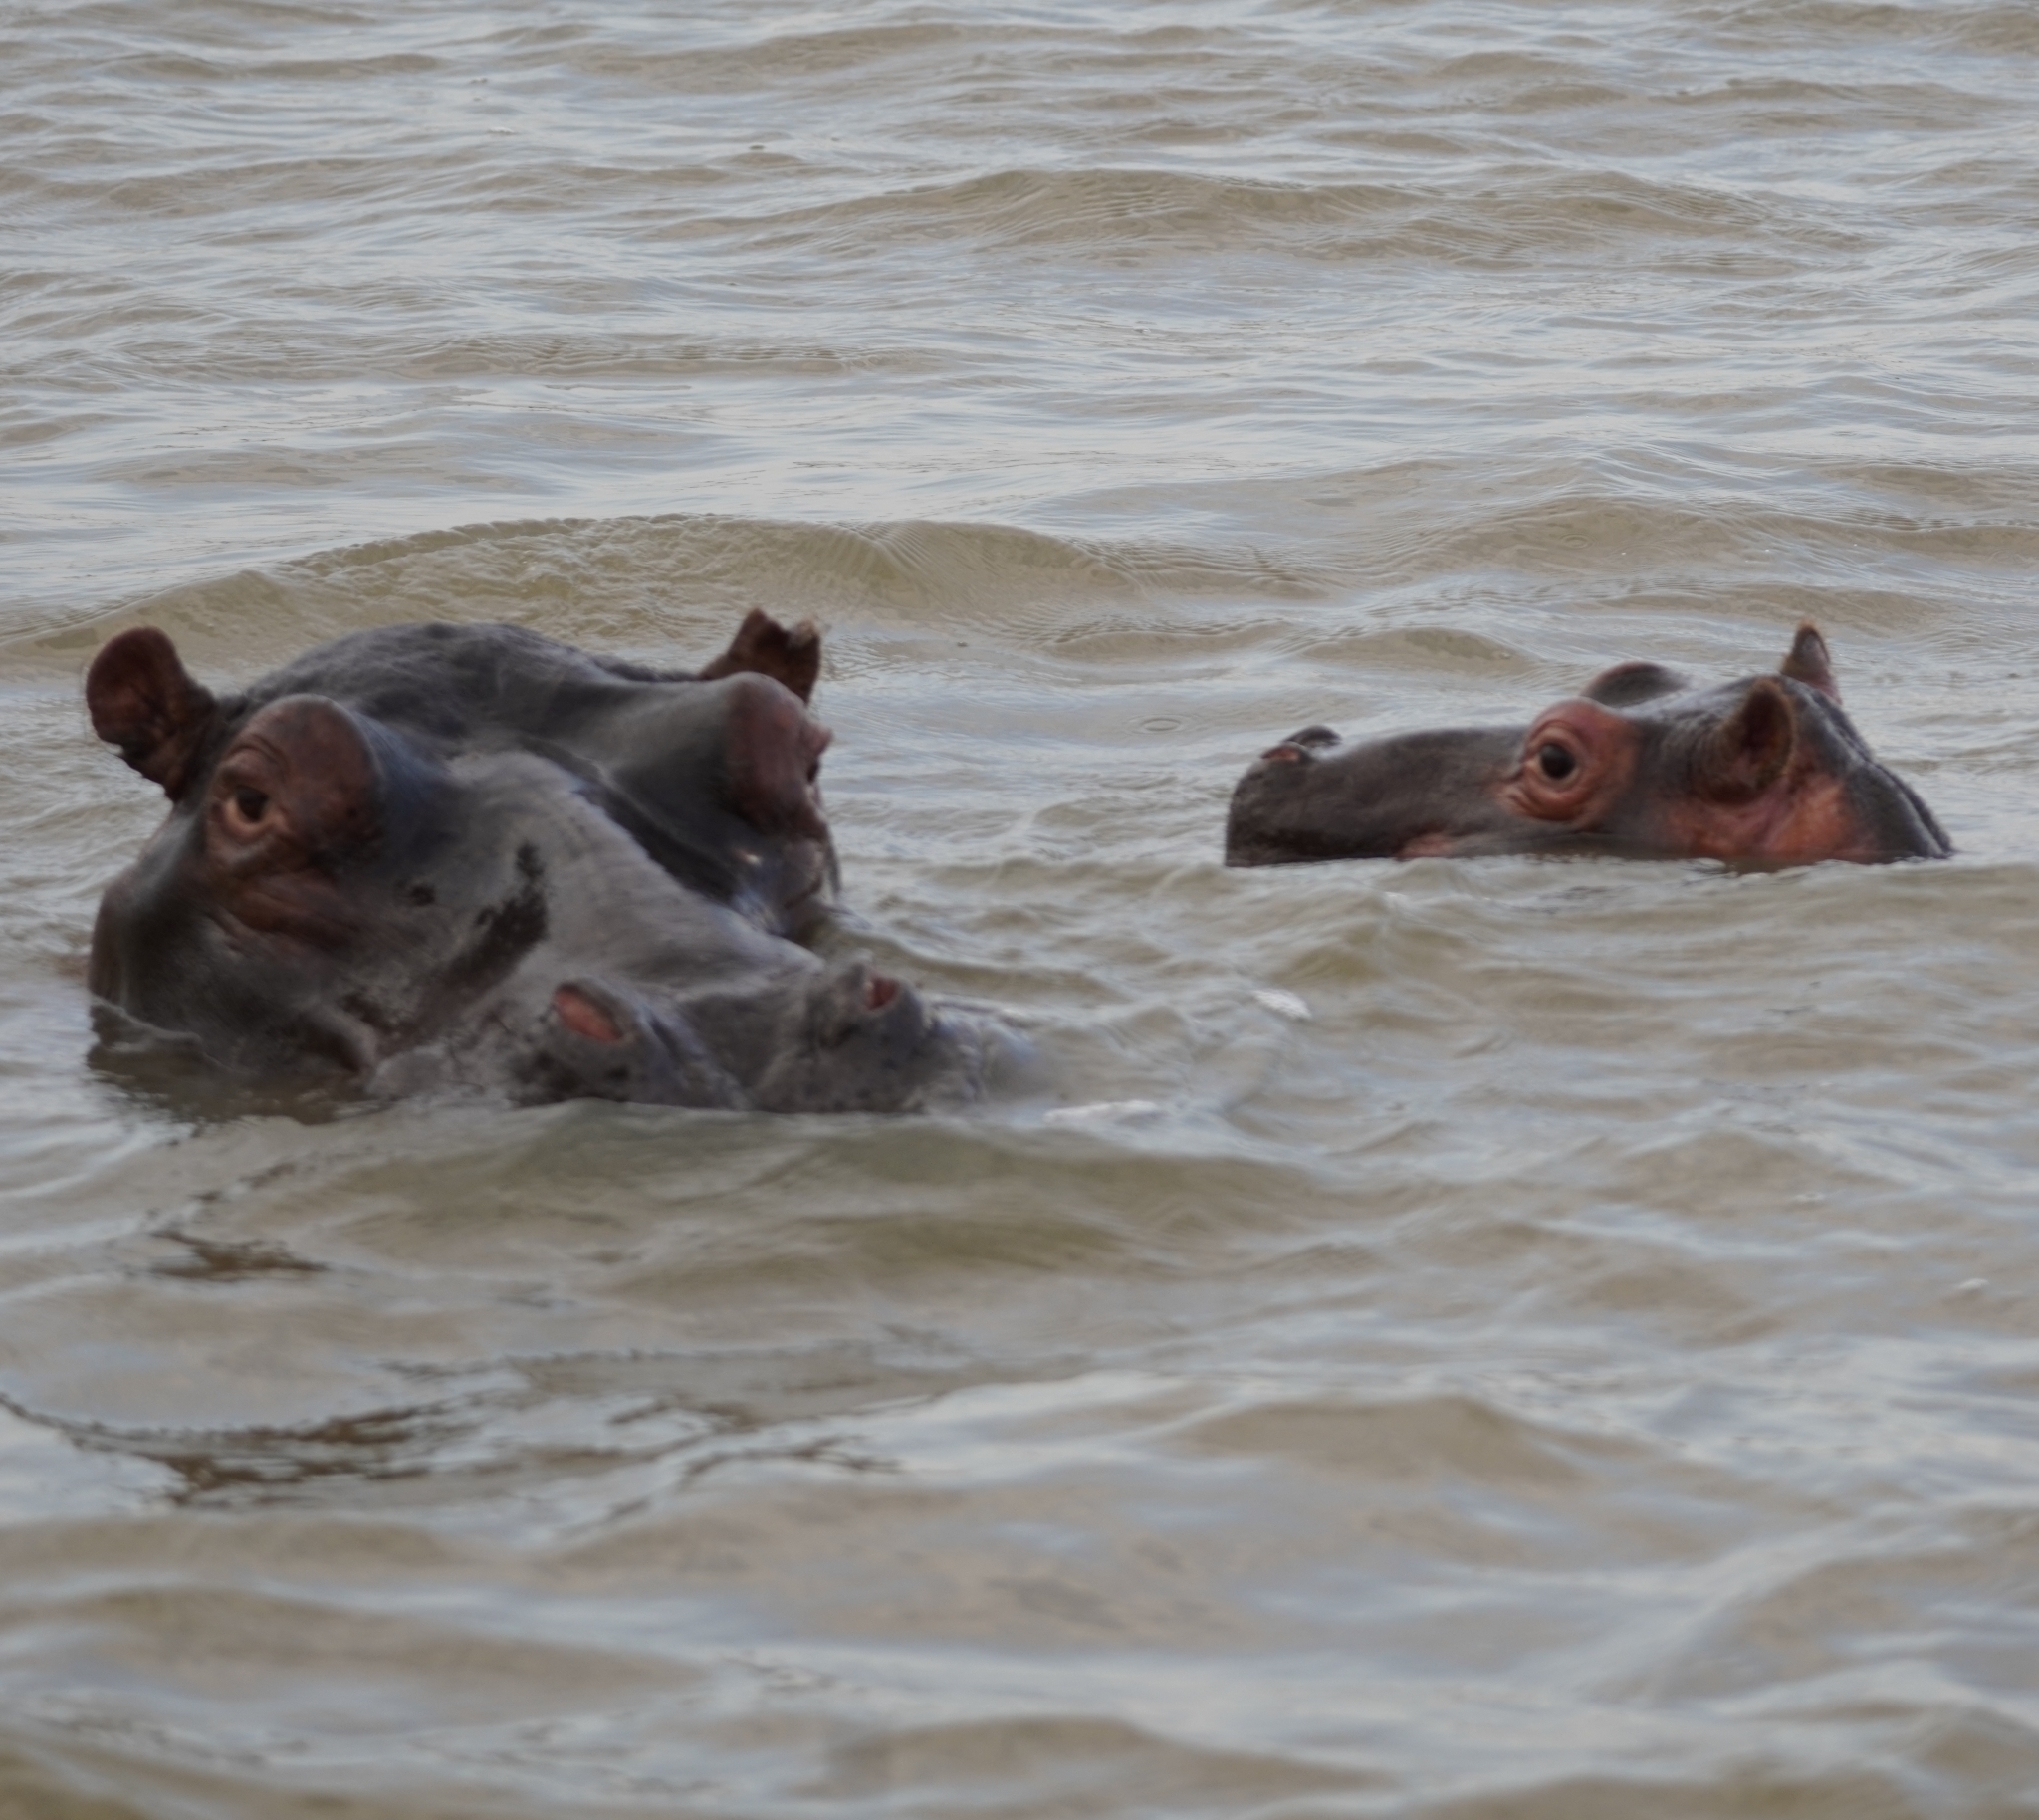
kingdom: Animalia
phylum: Chordata
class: Mammalia
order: Artiodactyla
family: Hippopotamidae
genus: Hippopotamus
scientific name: Hippopotamus amphibius
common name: Common hippopotamus
